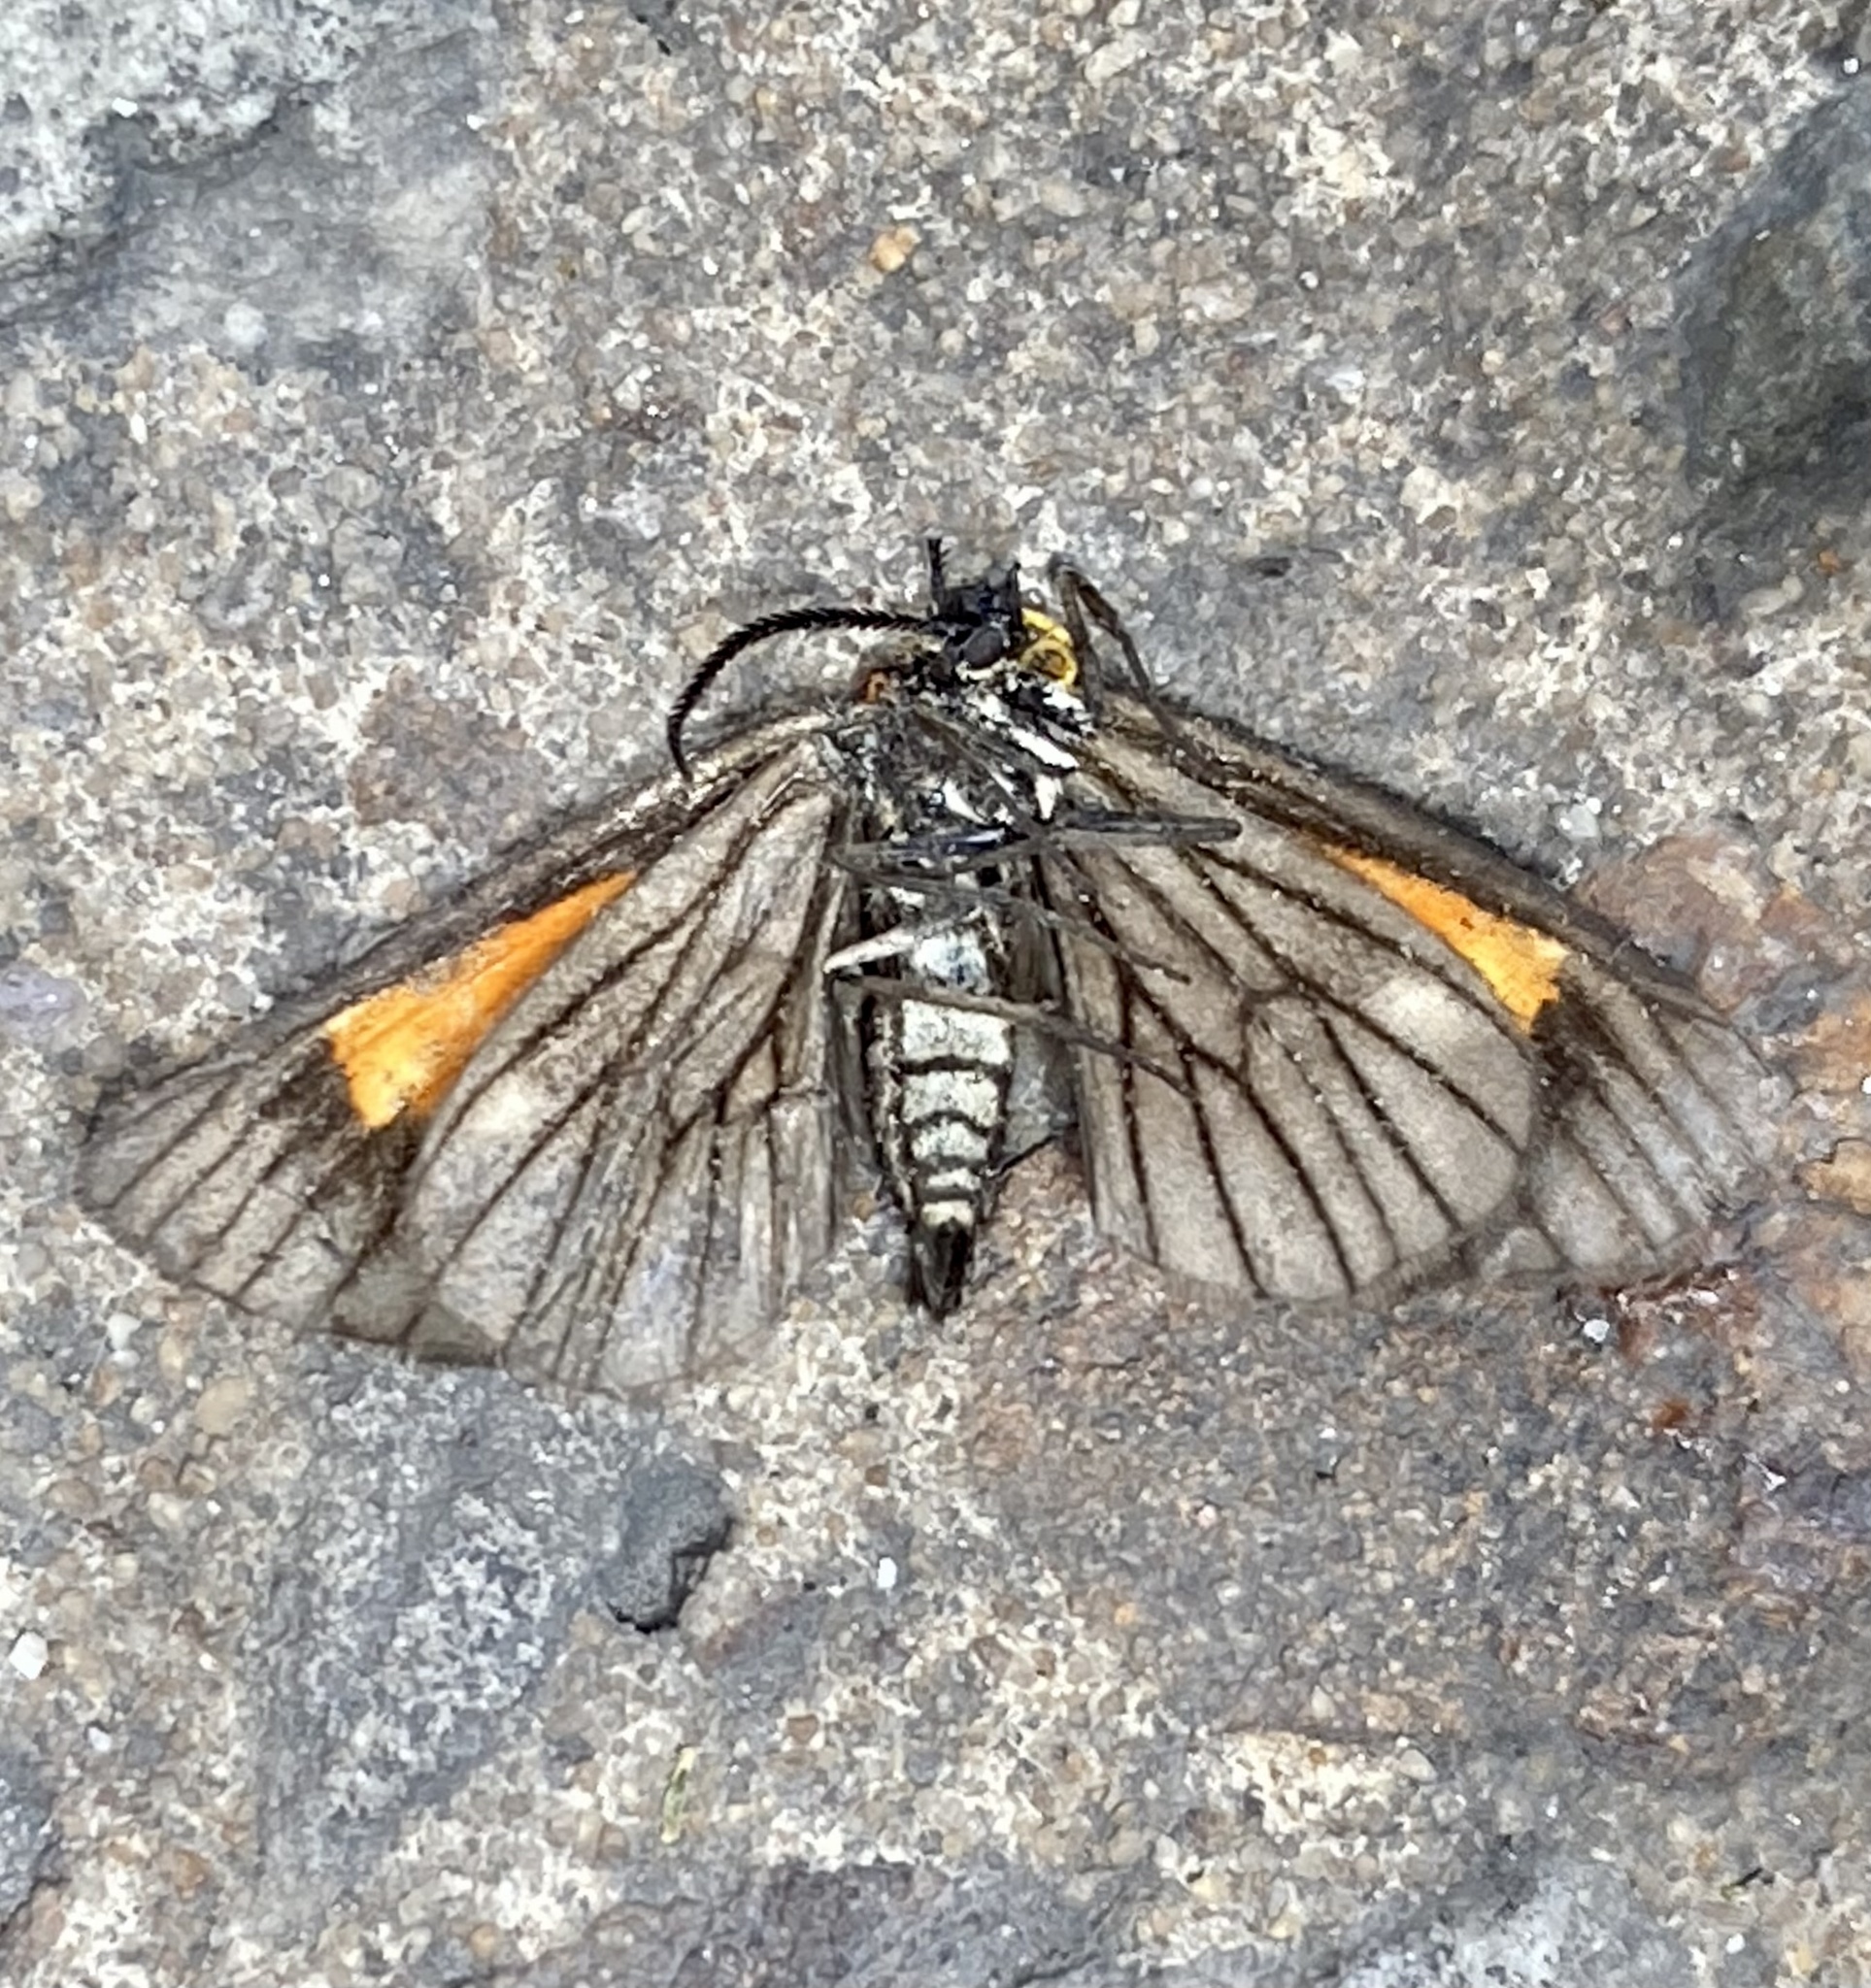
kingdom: Animalia
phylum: Arthropoda
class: Insecta
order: Lepidoptera
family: Geometridae
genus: Drymoea
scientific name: Drymoea
